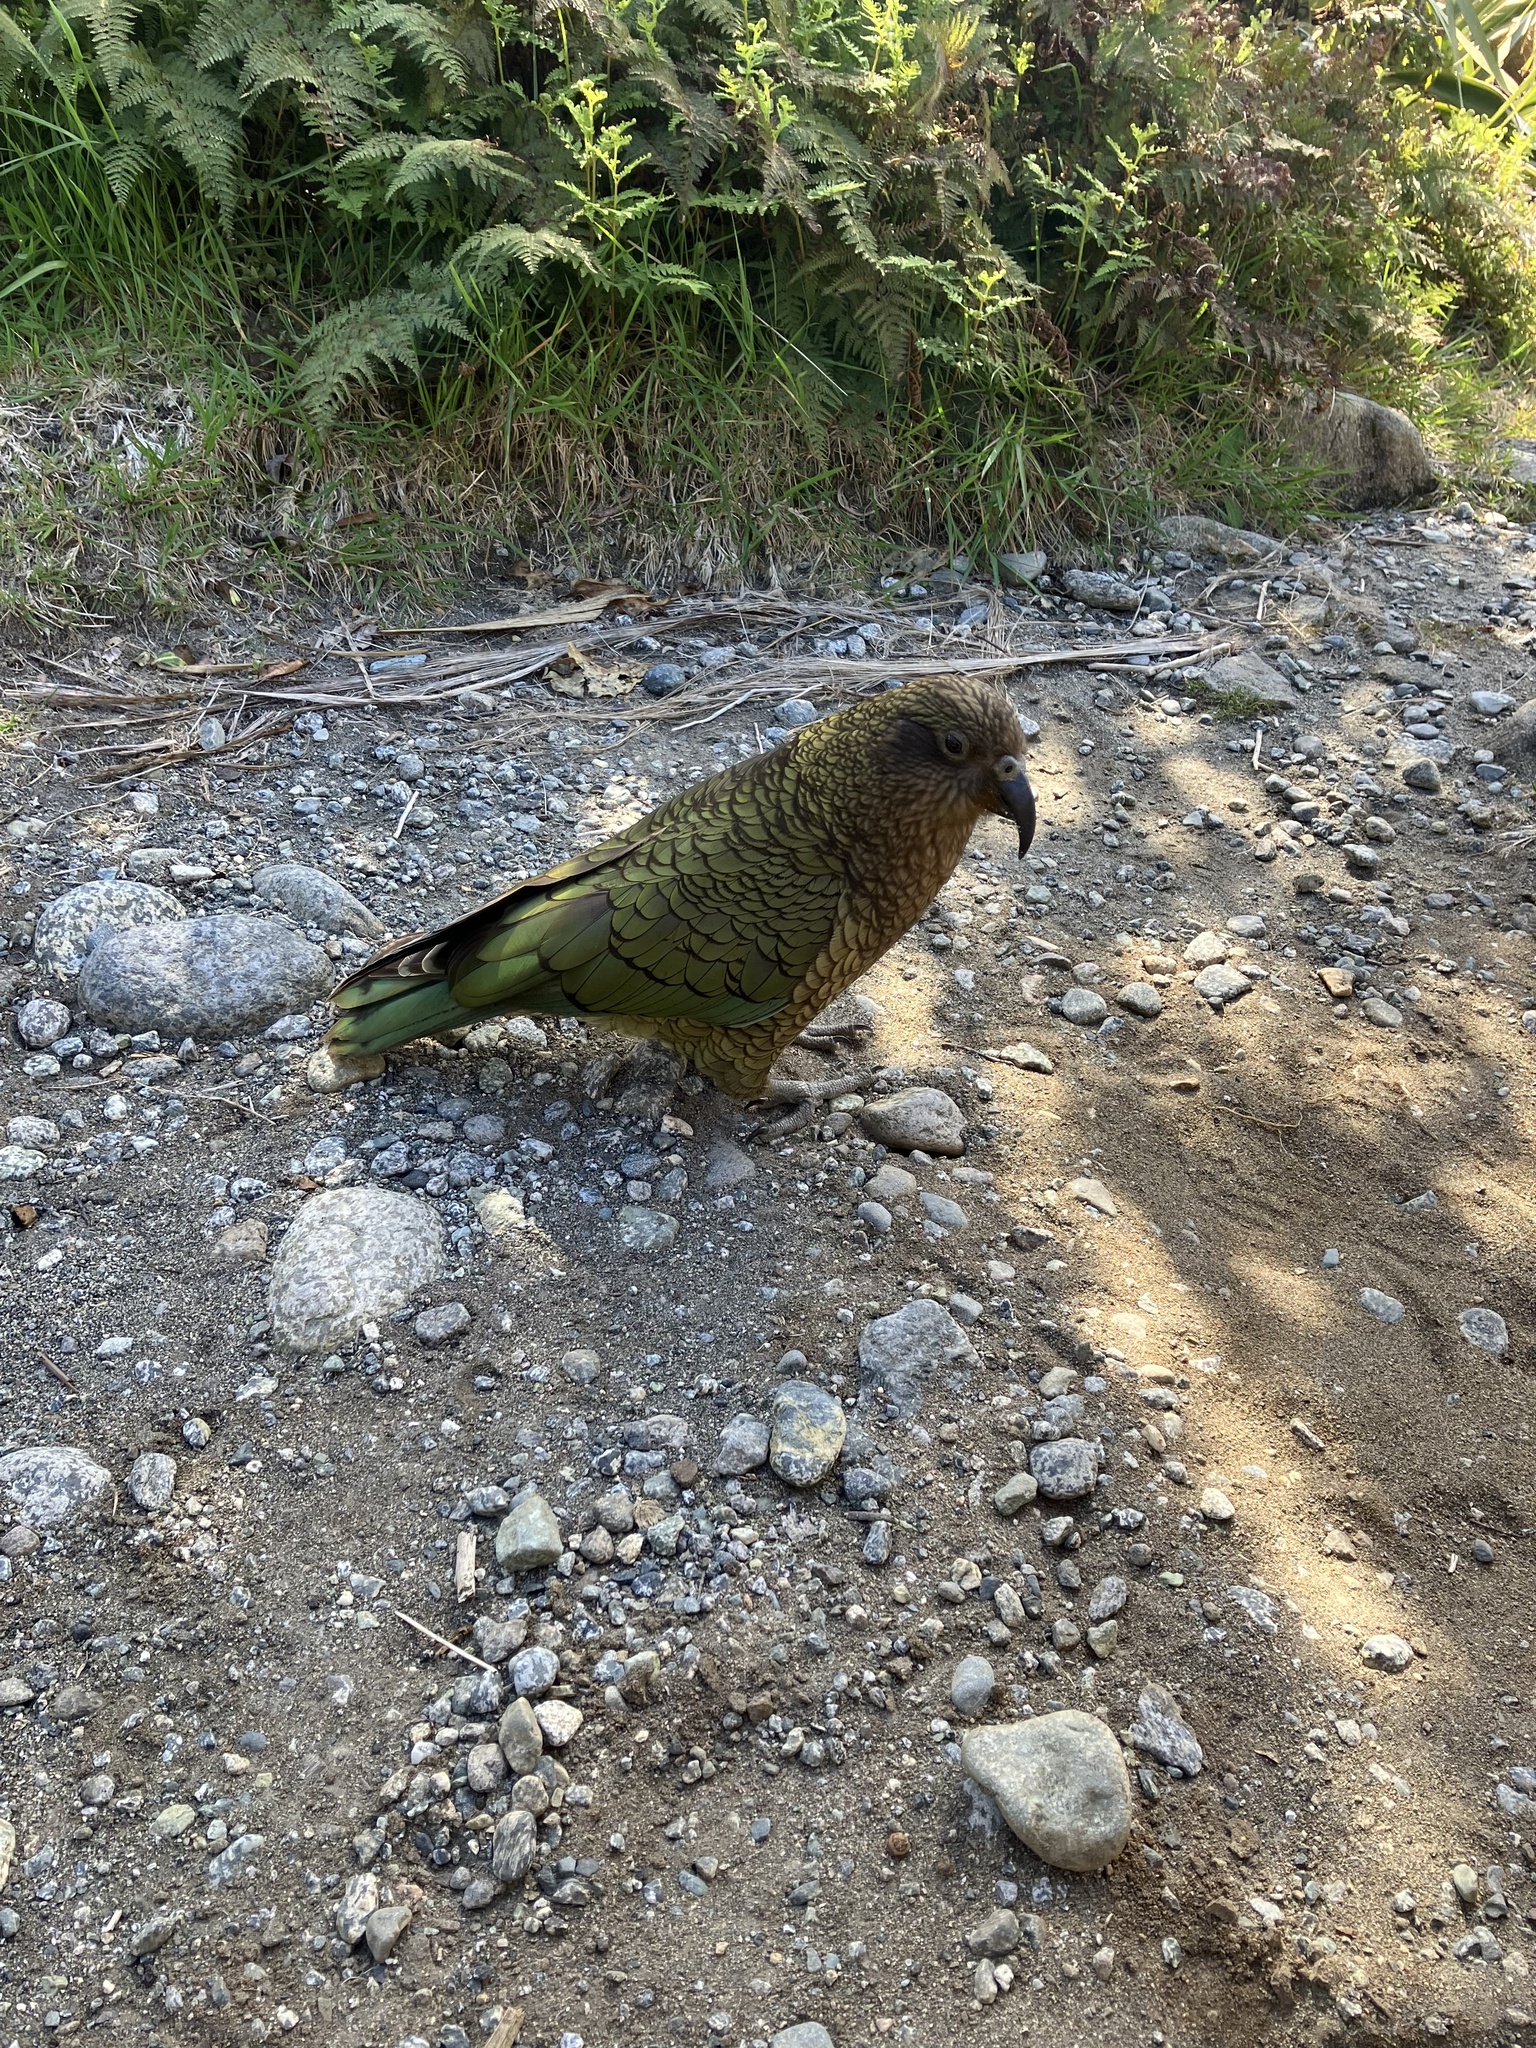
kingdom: Animalia
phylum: Chordata
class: Aves
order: Psittaciformes
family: Psittacidae
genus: Nestor
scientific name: Nestor notabilis
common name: Kea
